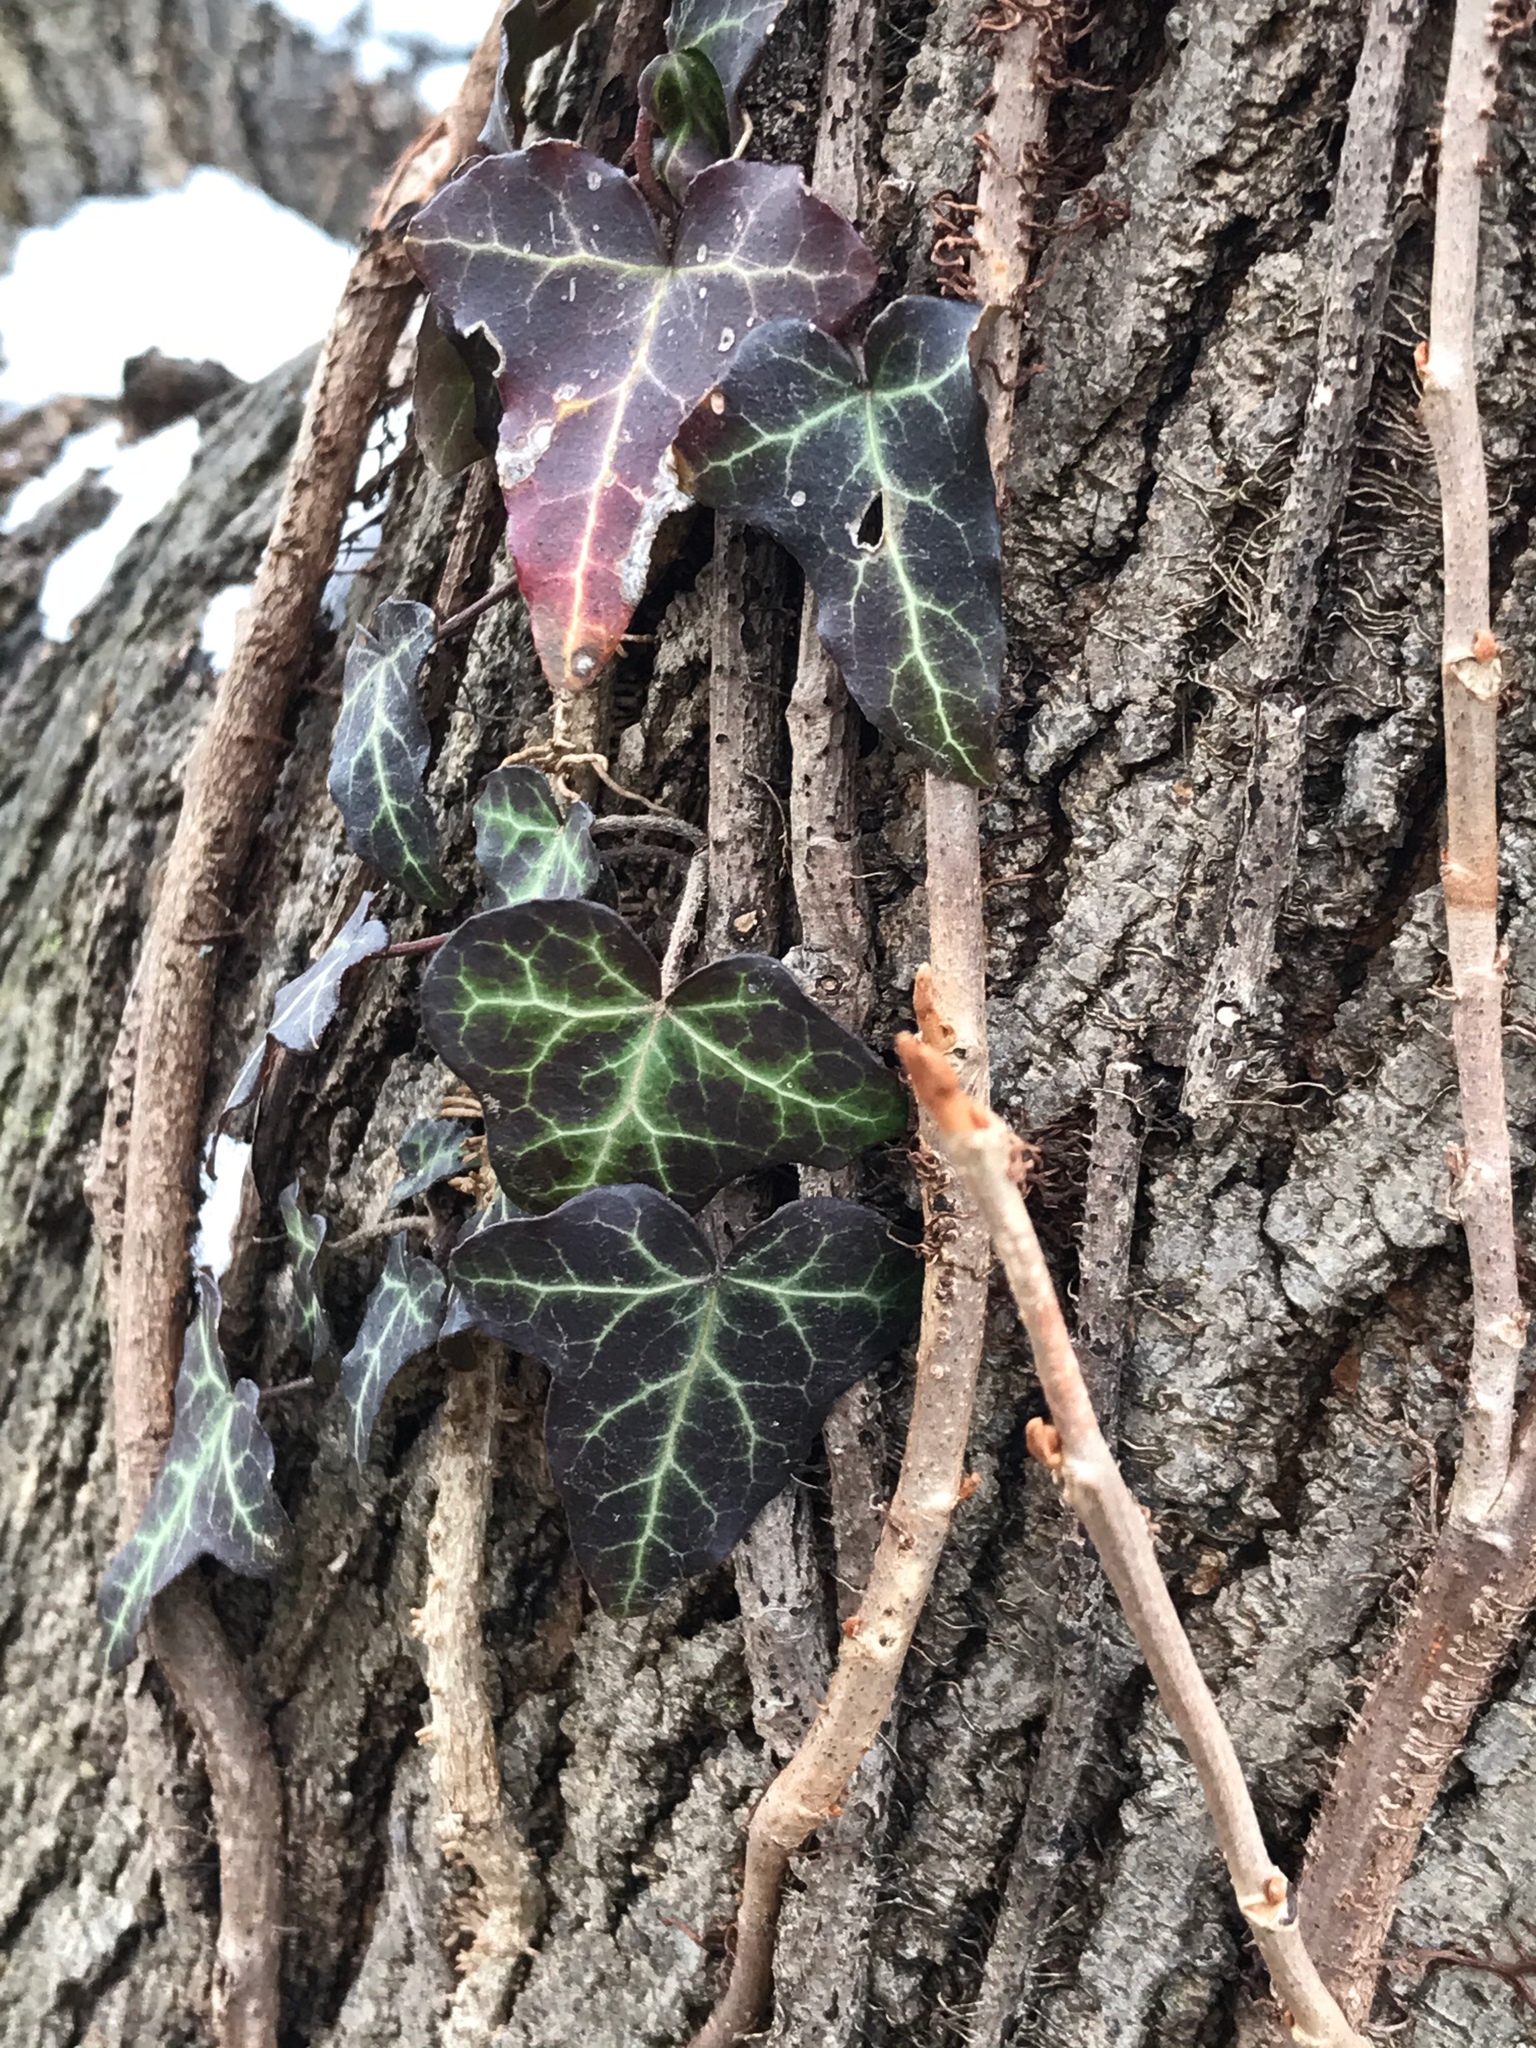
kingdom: Plantae
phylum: Tracheophyta
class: Magnoliopsida
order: Apiales
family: Araliaceae
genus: Hedera
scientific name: Hedera
